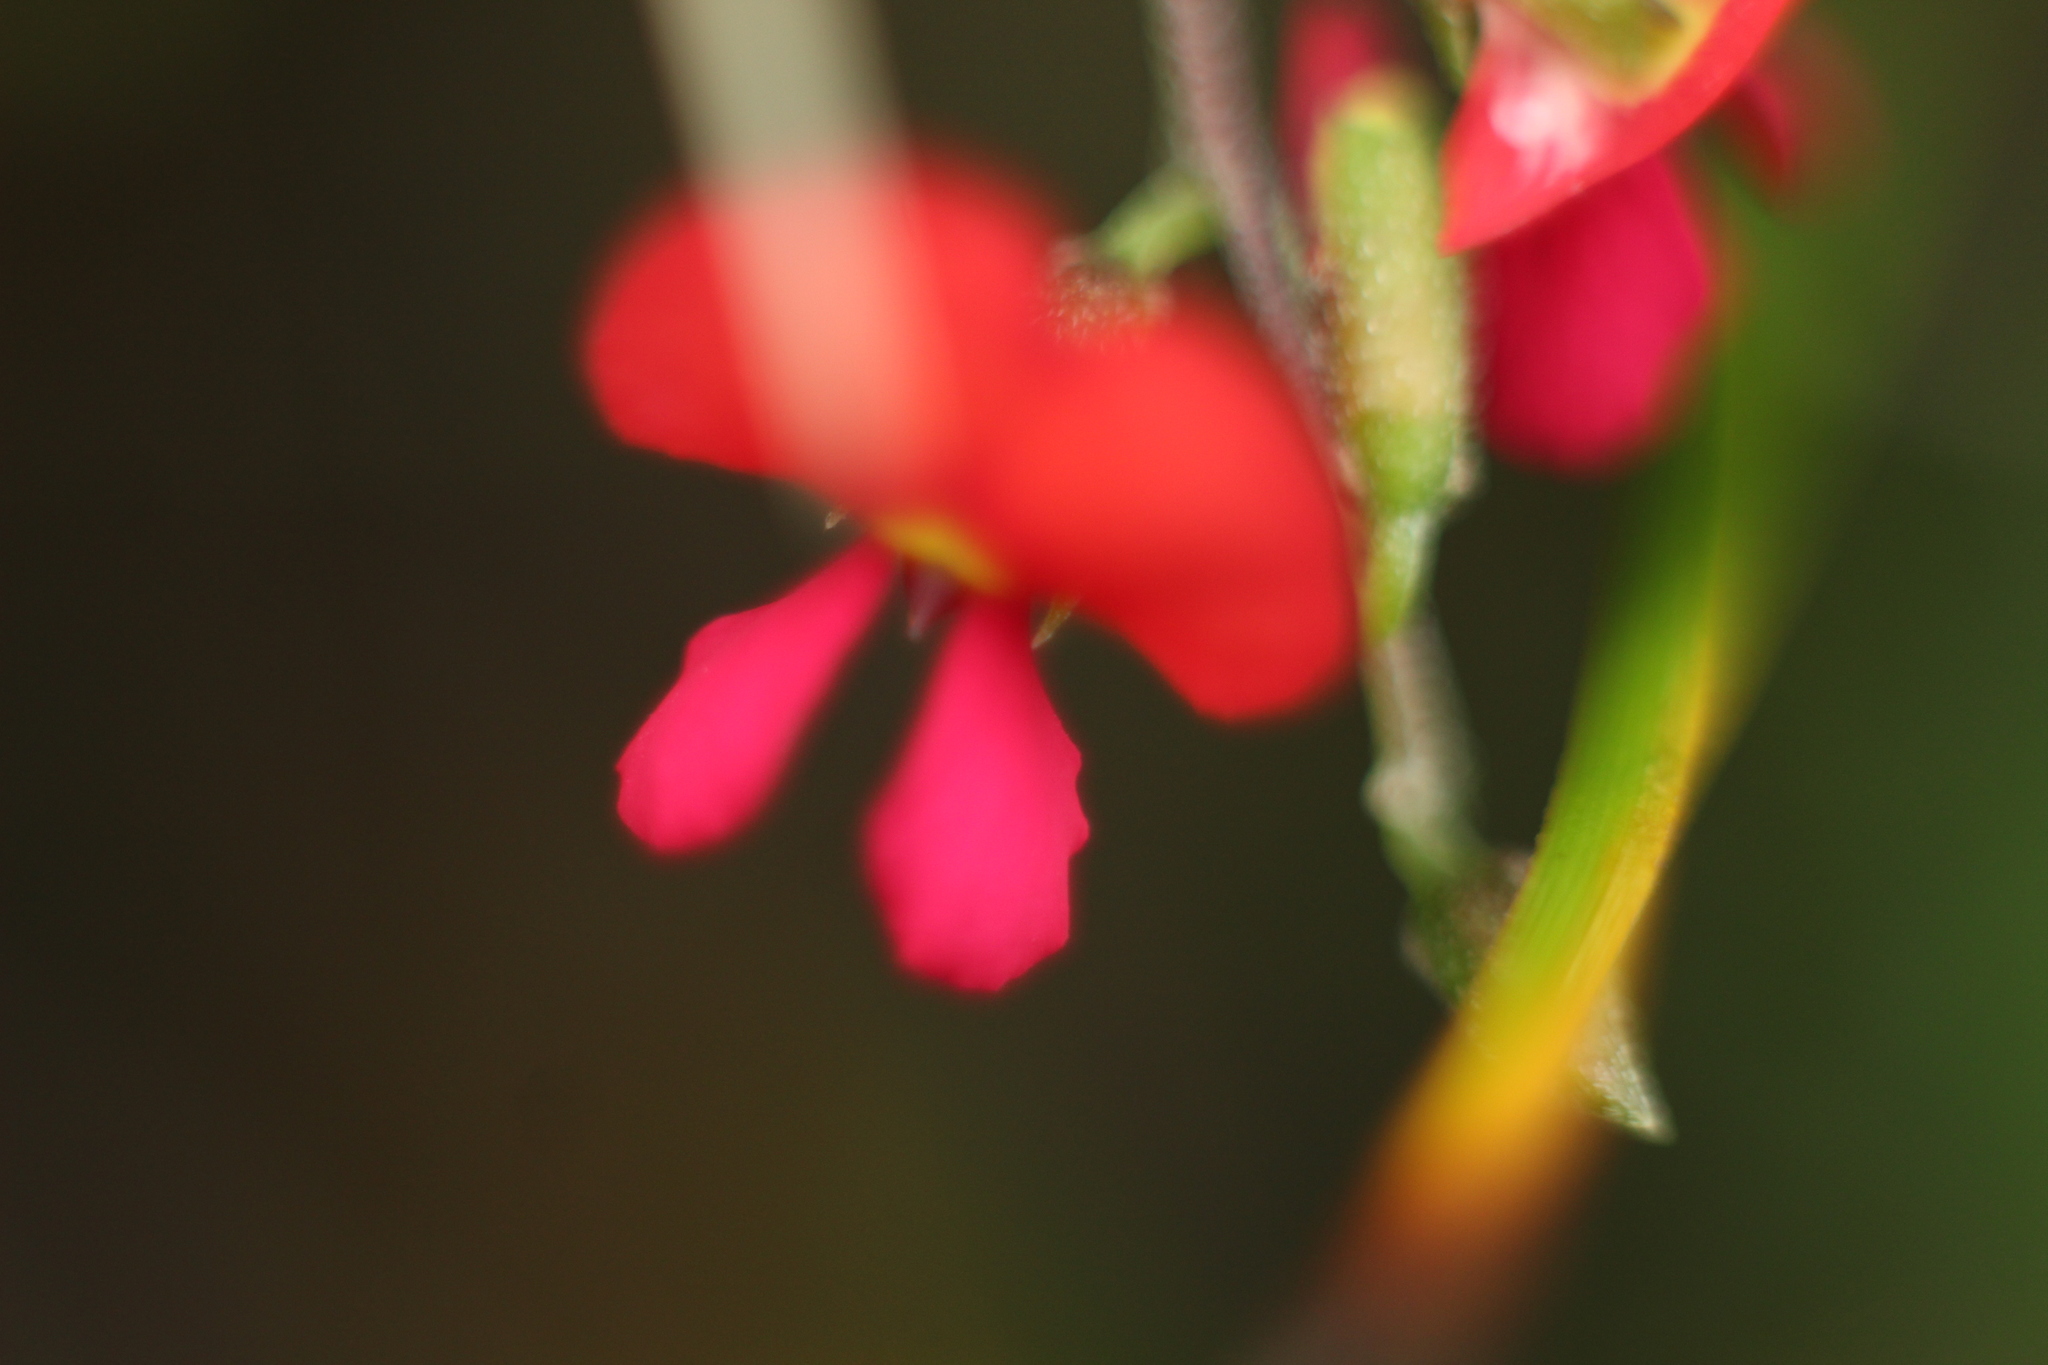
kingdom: Plantae
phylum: Tracheophyta
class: Magnoliopsida
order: Fabales
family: Fabaceae
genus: Chorizema
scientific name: Chorizema ilicifolium
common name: Holly flame-pea
